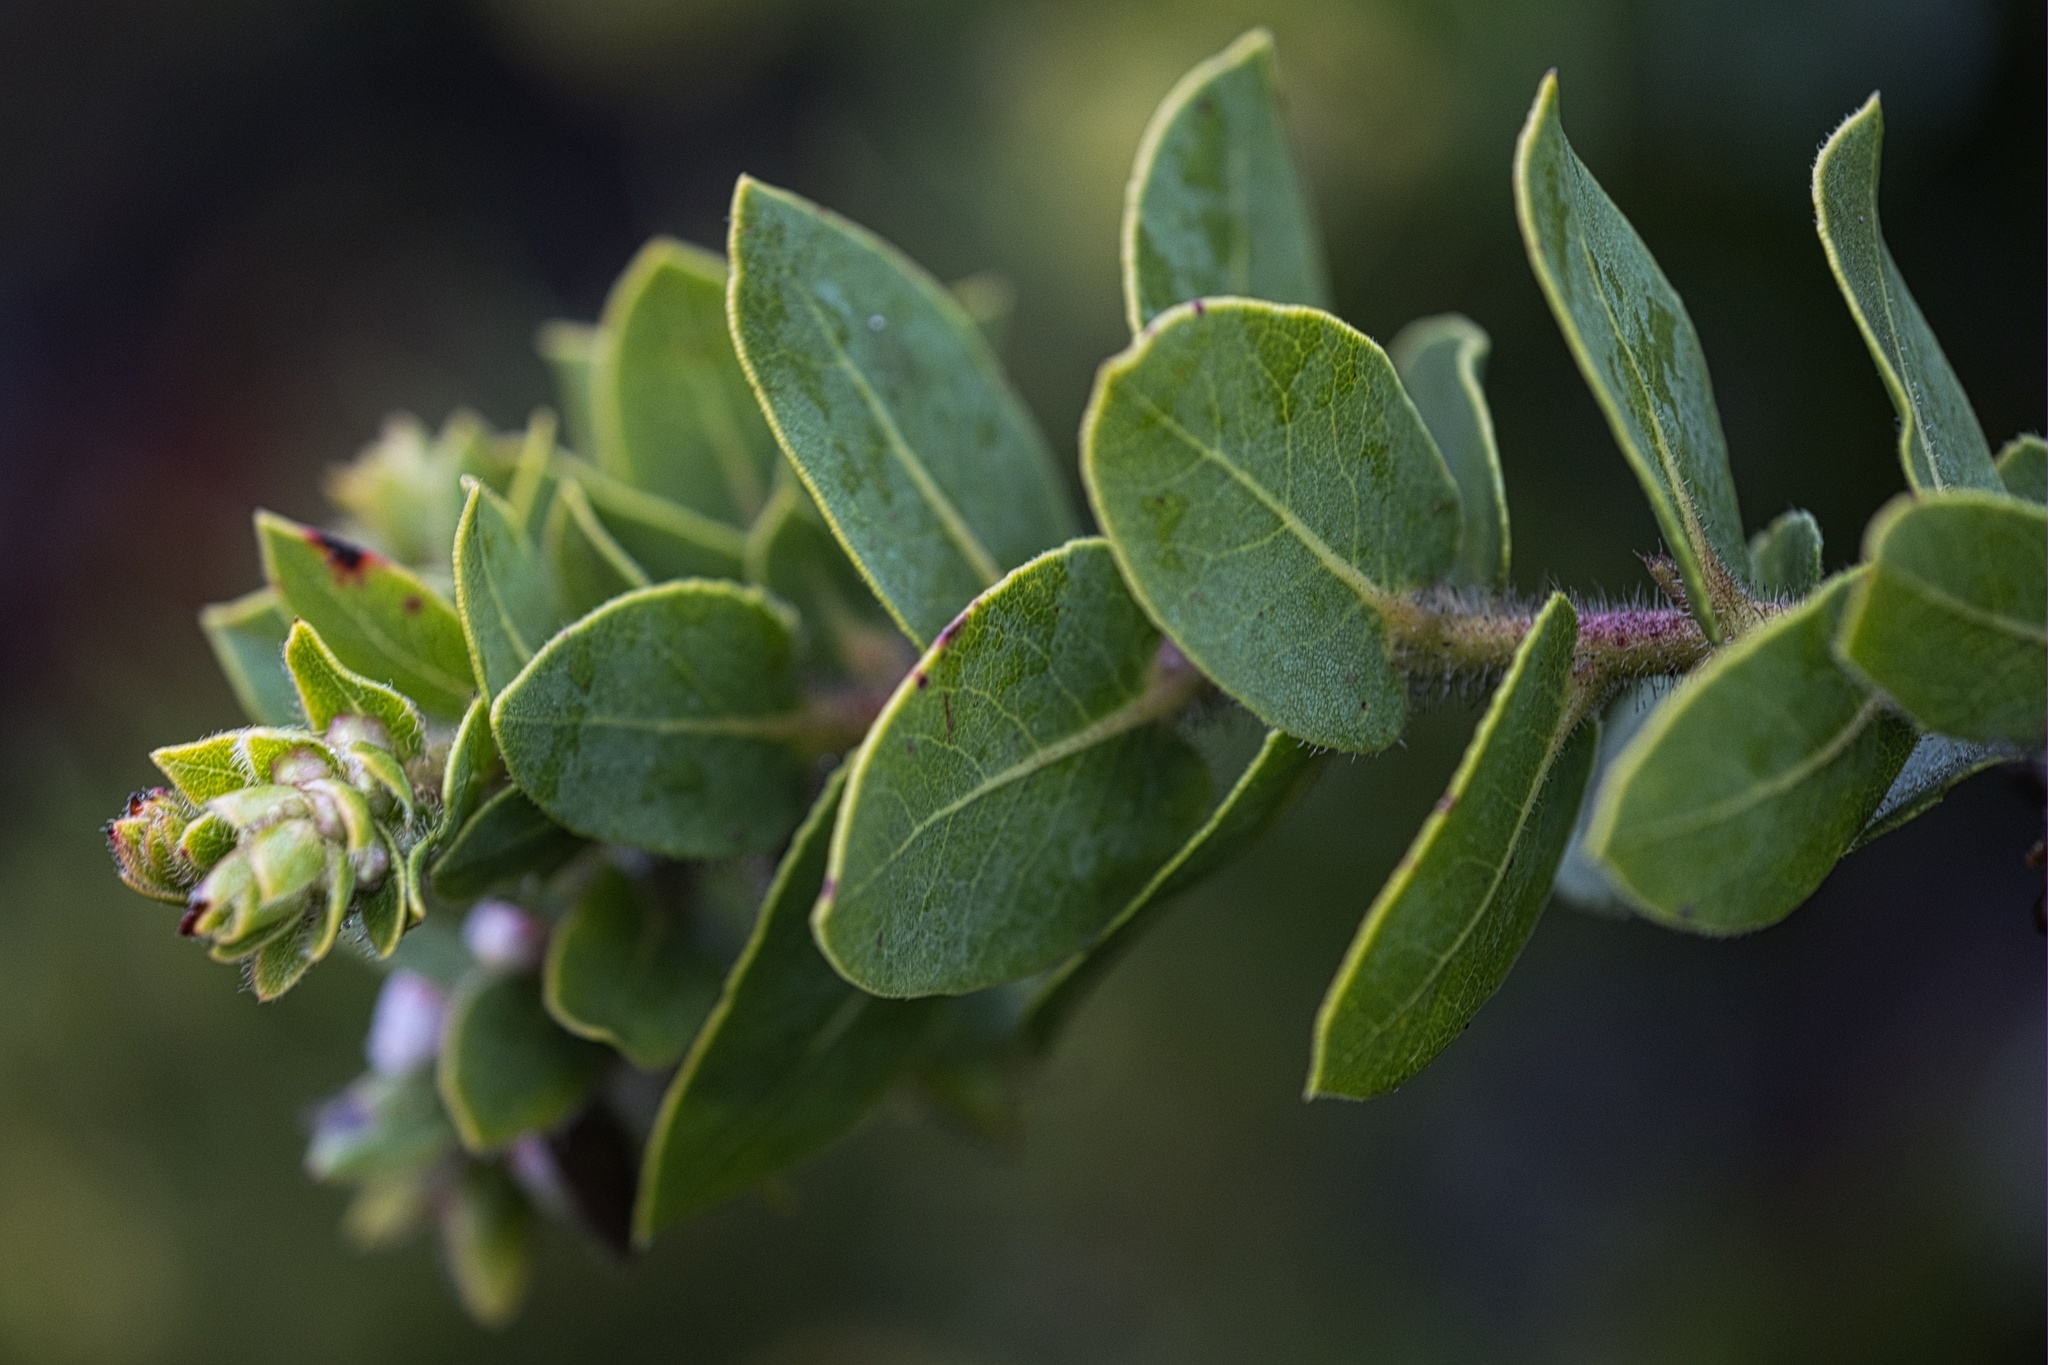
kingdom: Plantae
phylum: Tracheophyta
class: Magnoliopsida
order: Ericales
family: Ericaceae
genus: Arctostaphylos
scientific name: Arctostaphylos imbricata
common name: San bruno mountain manzanita
